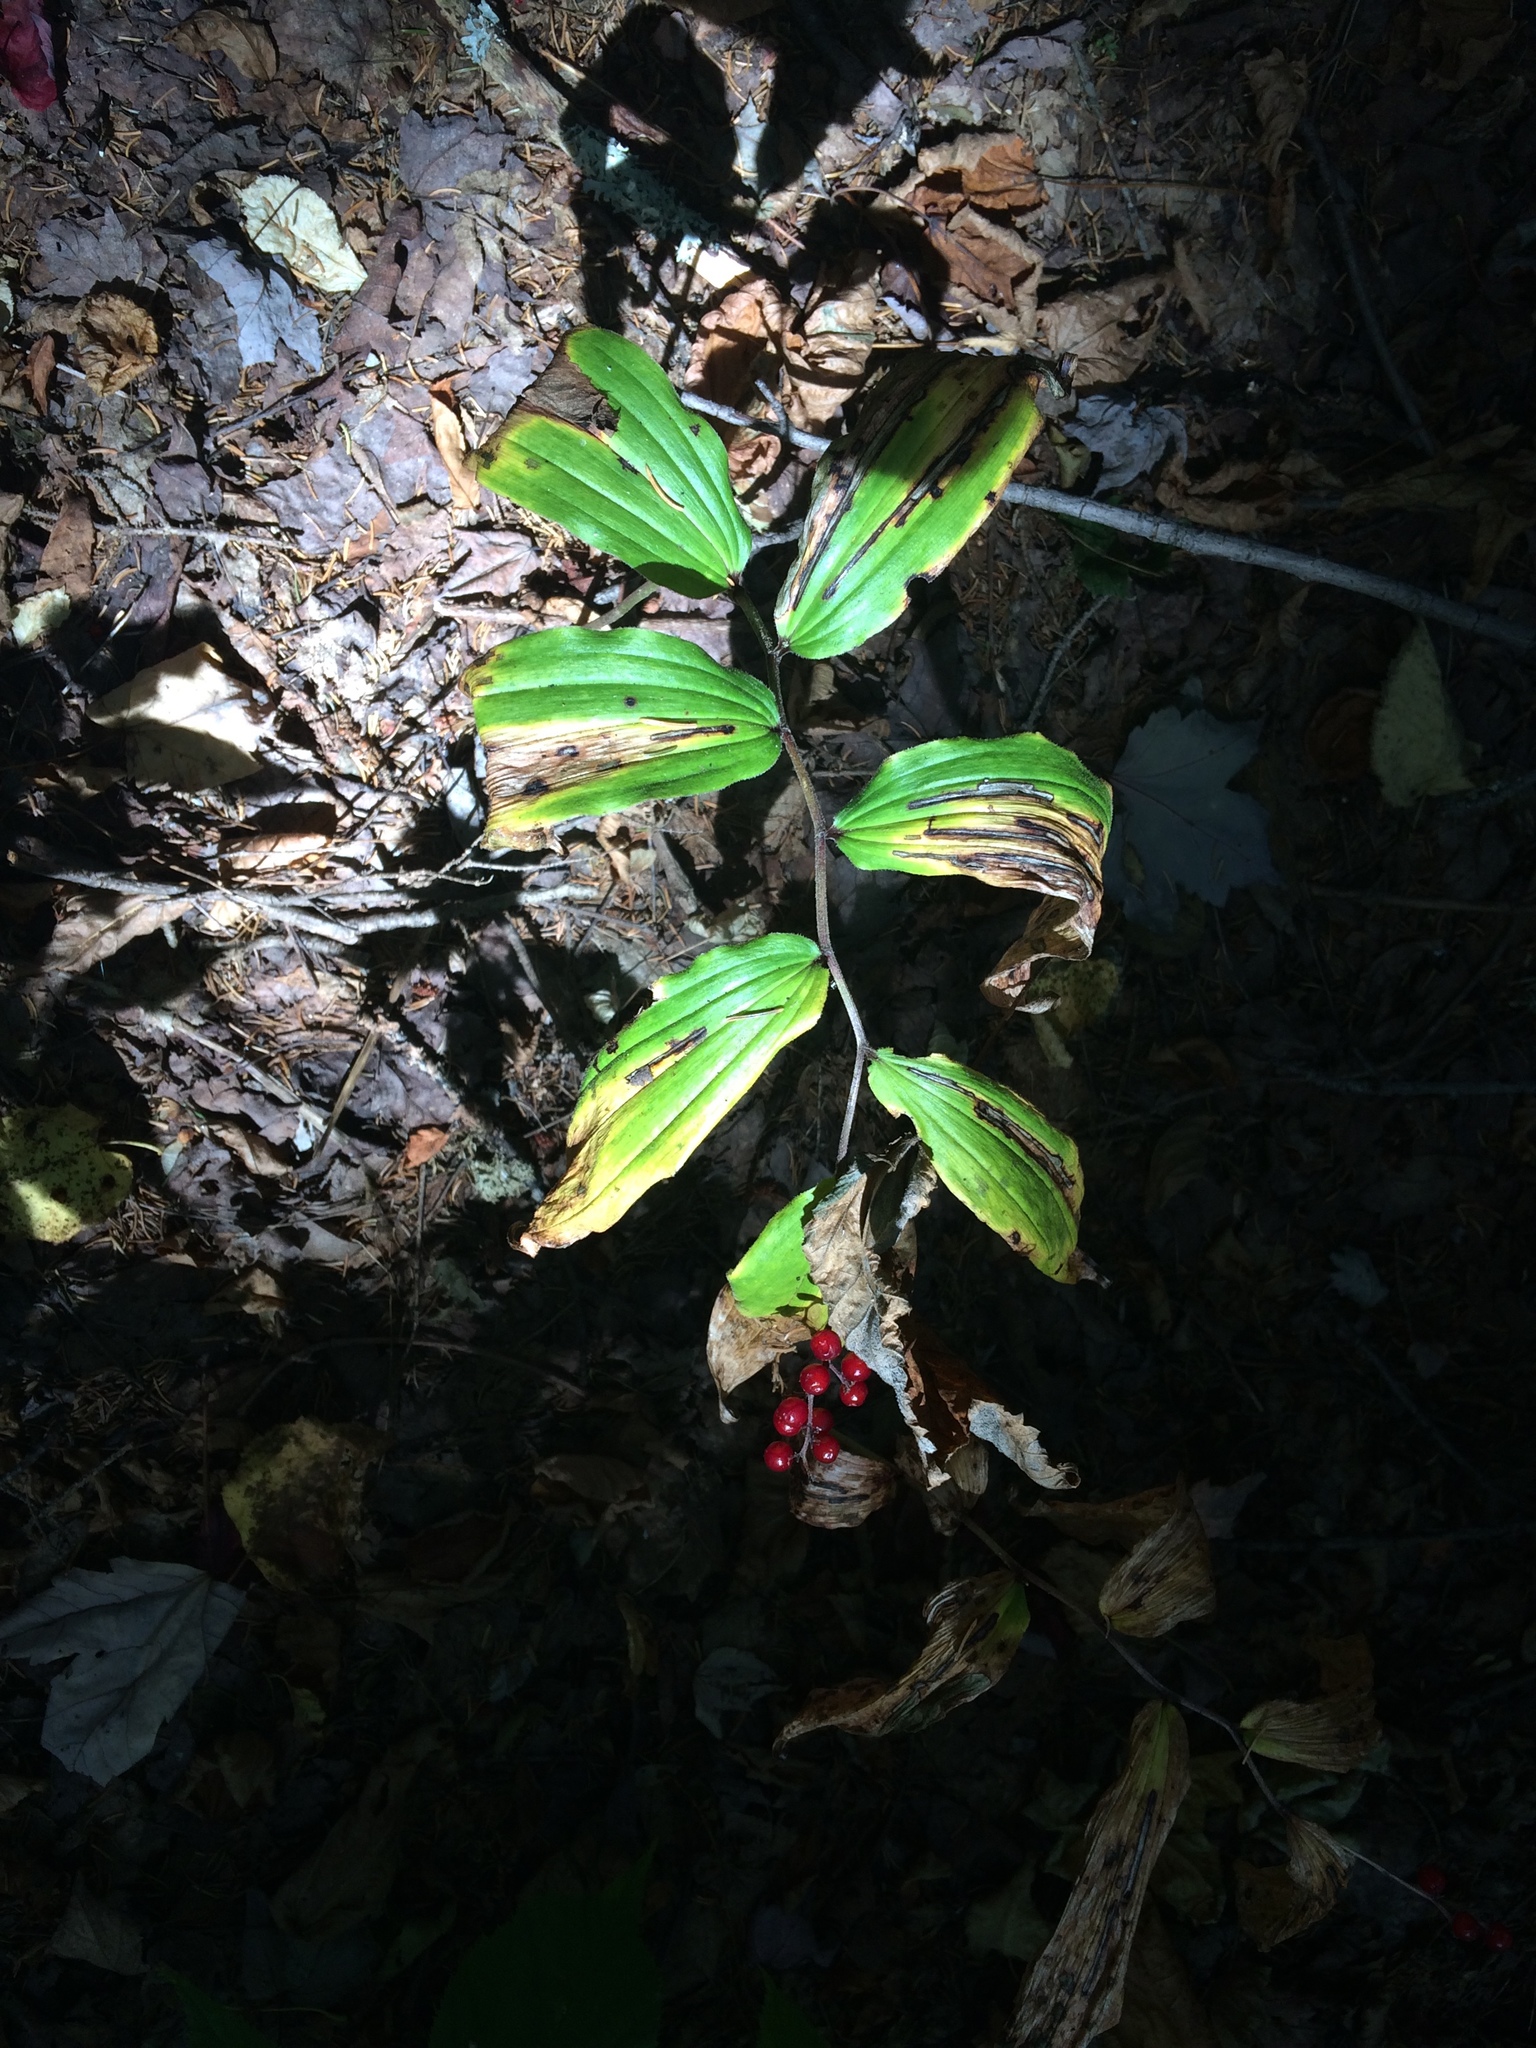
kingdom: Plantae
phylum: Tracheophyta
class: Liliopsida
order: Asparagales
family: Asparagaceae
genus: Maianthemum
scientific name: Maianthemum racemosum
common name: False spikenard
